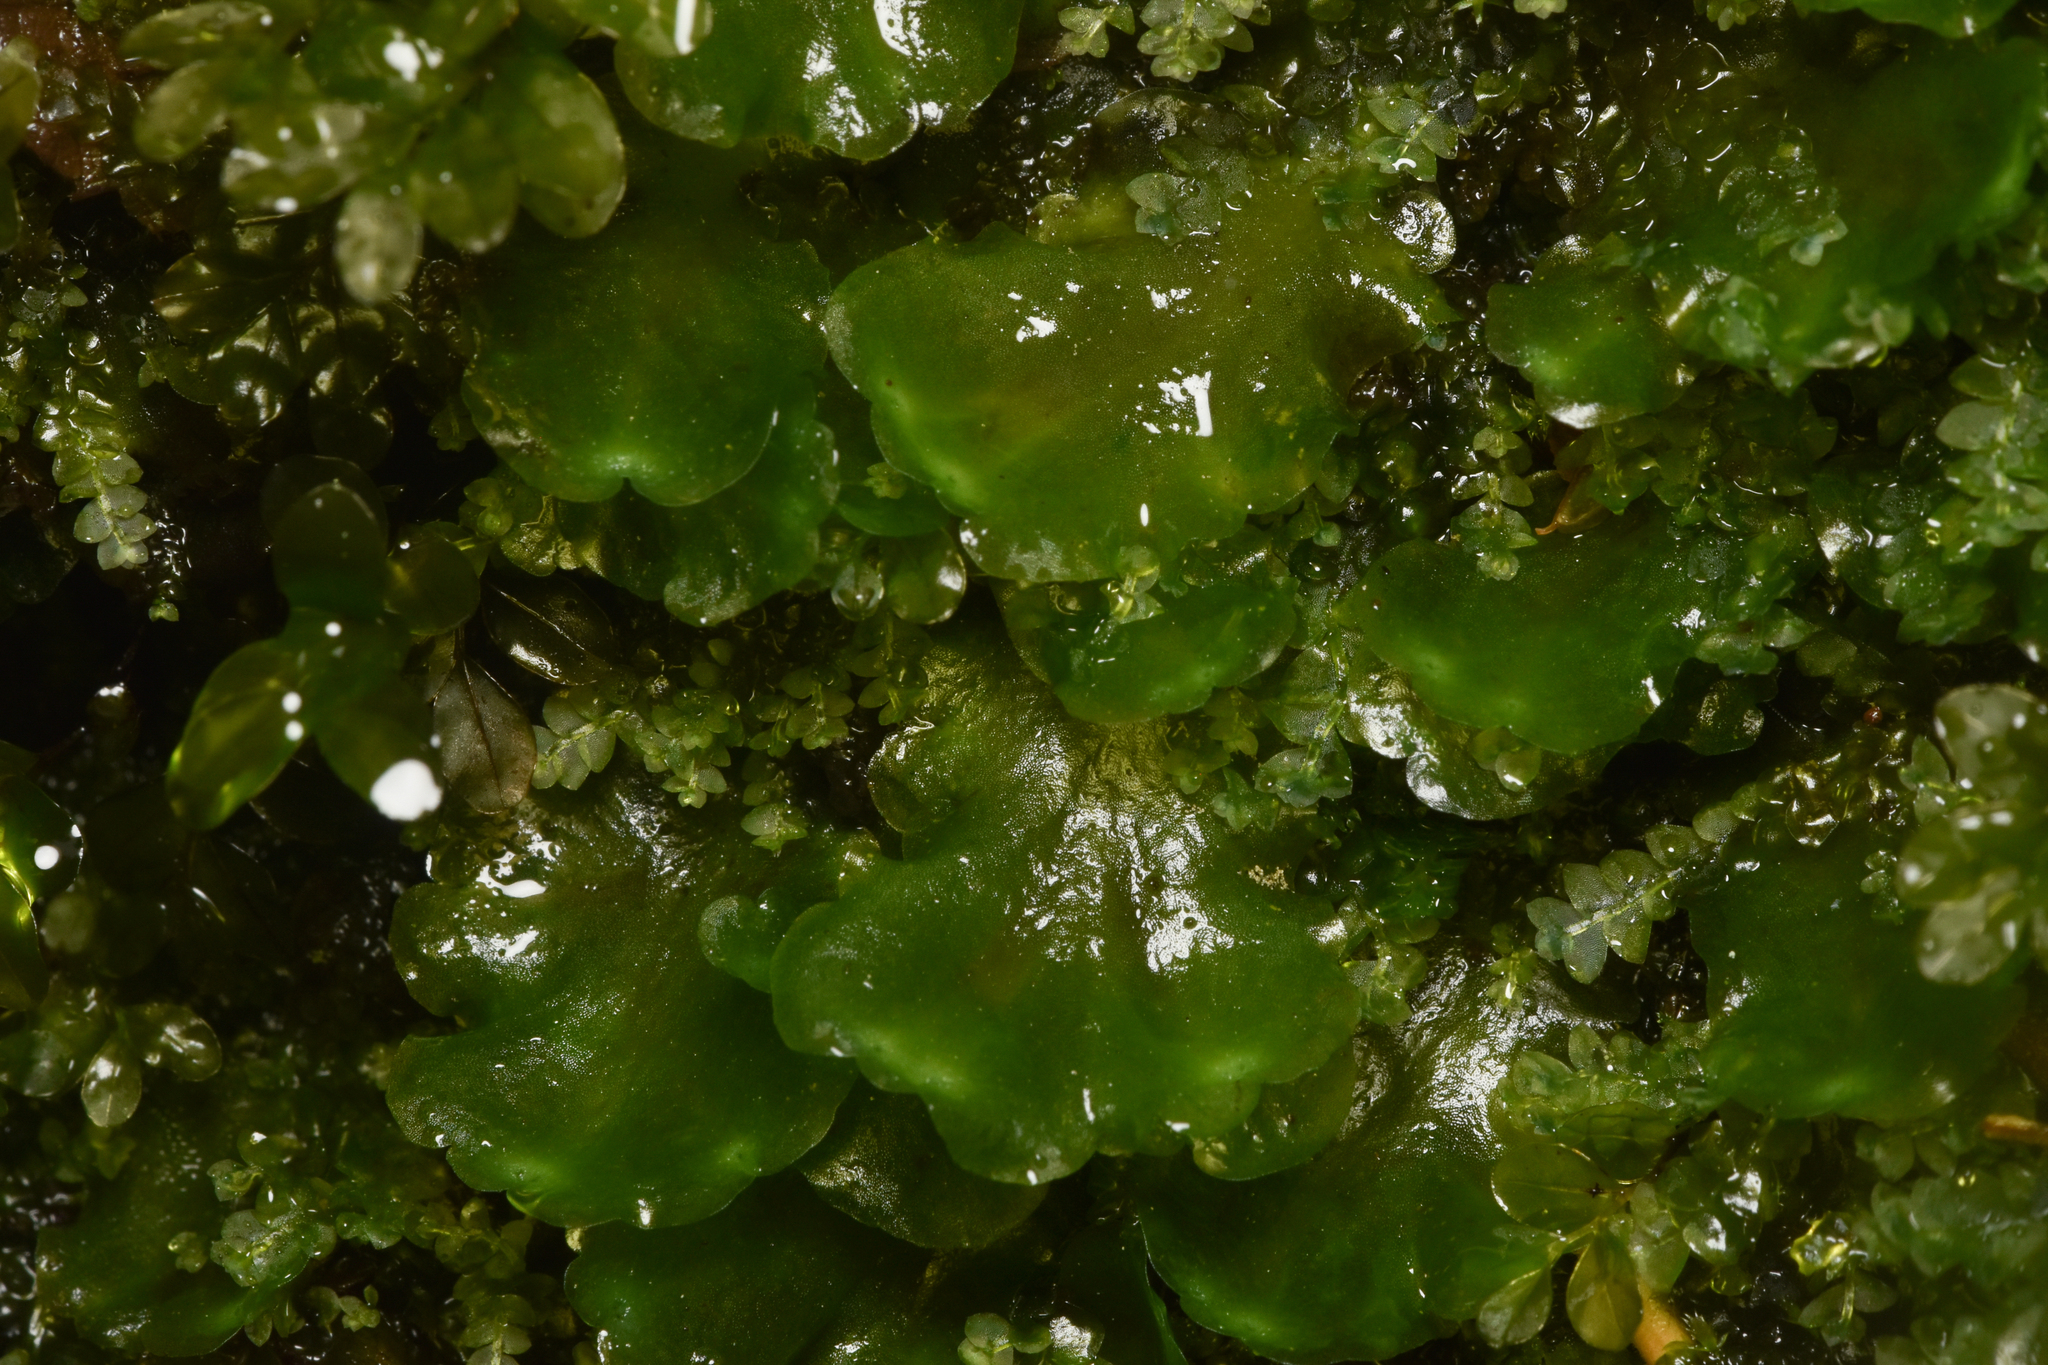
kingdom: Plantae
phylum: Marchantiophyta
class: Jungermanniopsida
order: Pelliales
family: Pelliaceae
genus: Pellia
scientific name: Pellia neesiana
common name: Nees  pellia
